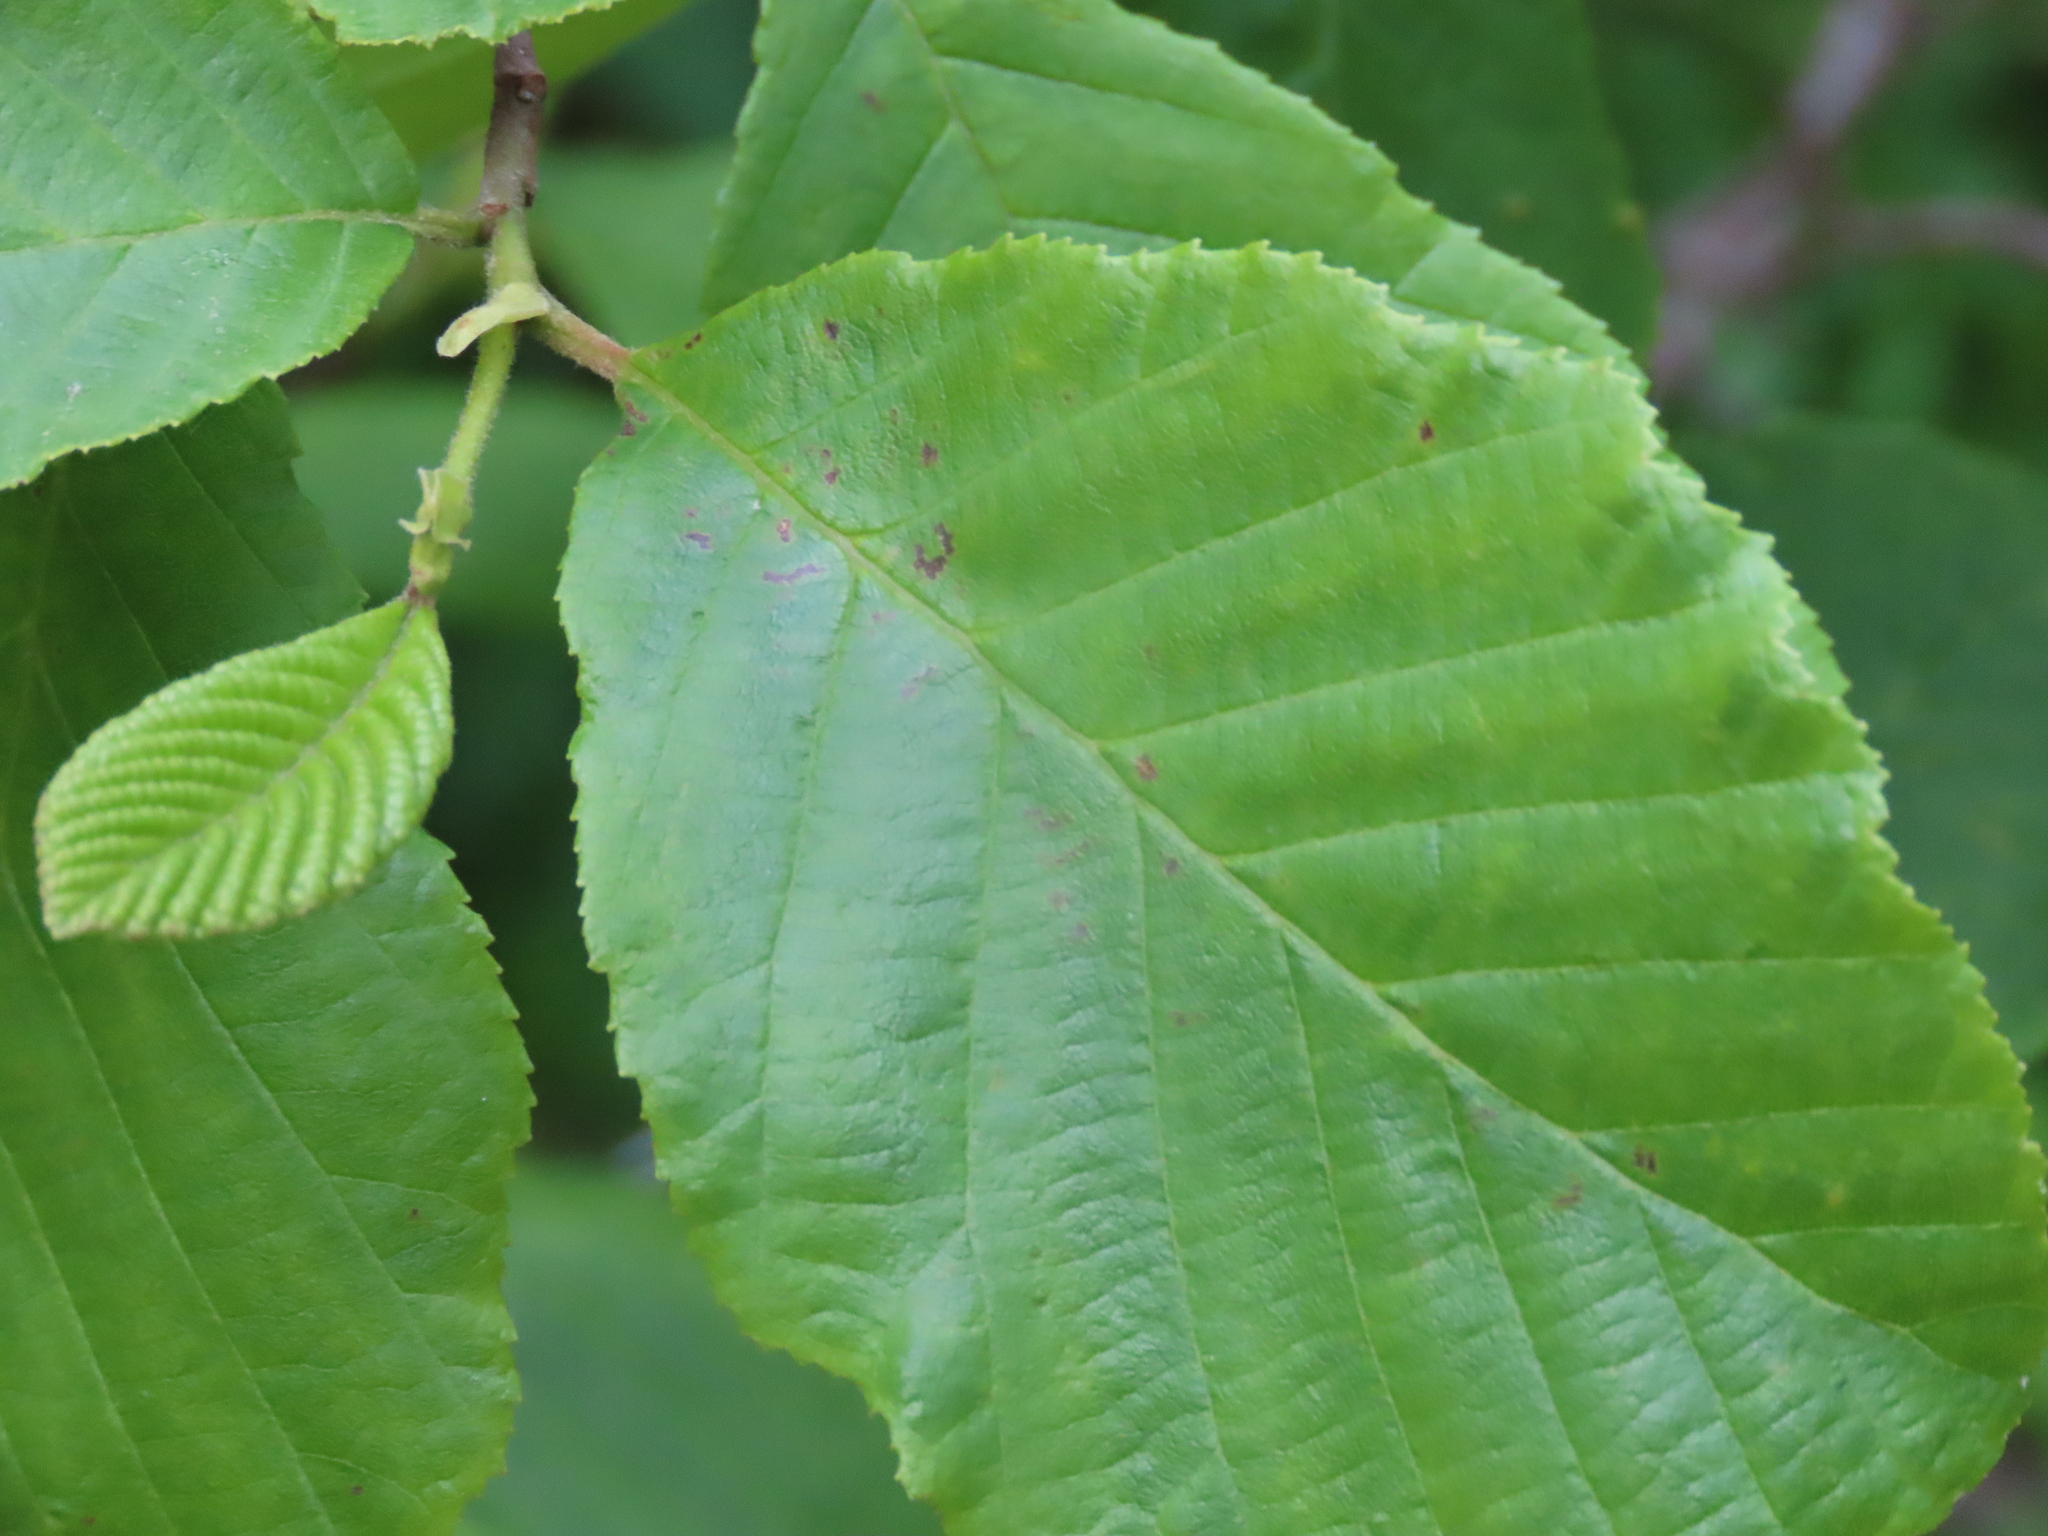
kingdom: Plantae
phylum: Tracheophyta
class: Magnoliopsida
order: Fagales
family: Betulaceae
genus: Alnus
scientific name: Alnus serrulata
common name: Hazel alder
